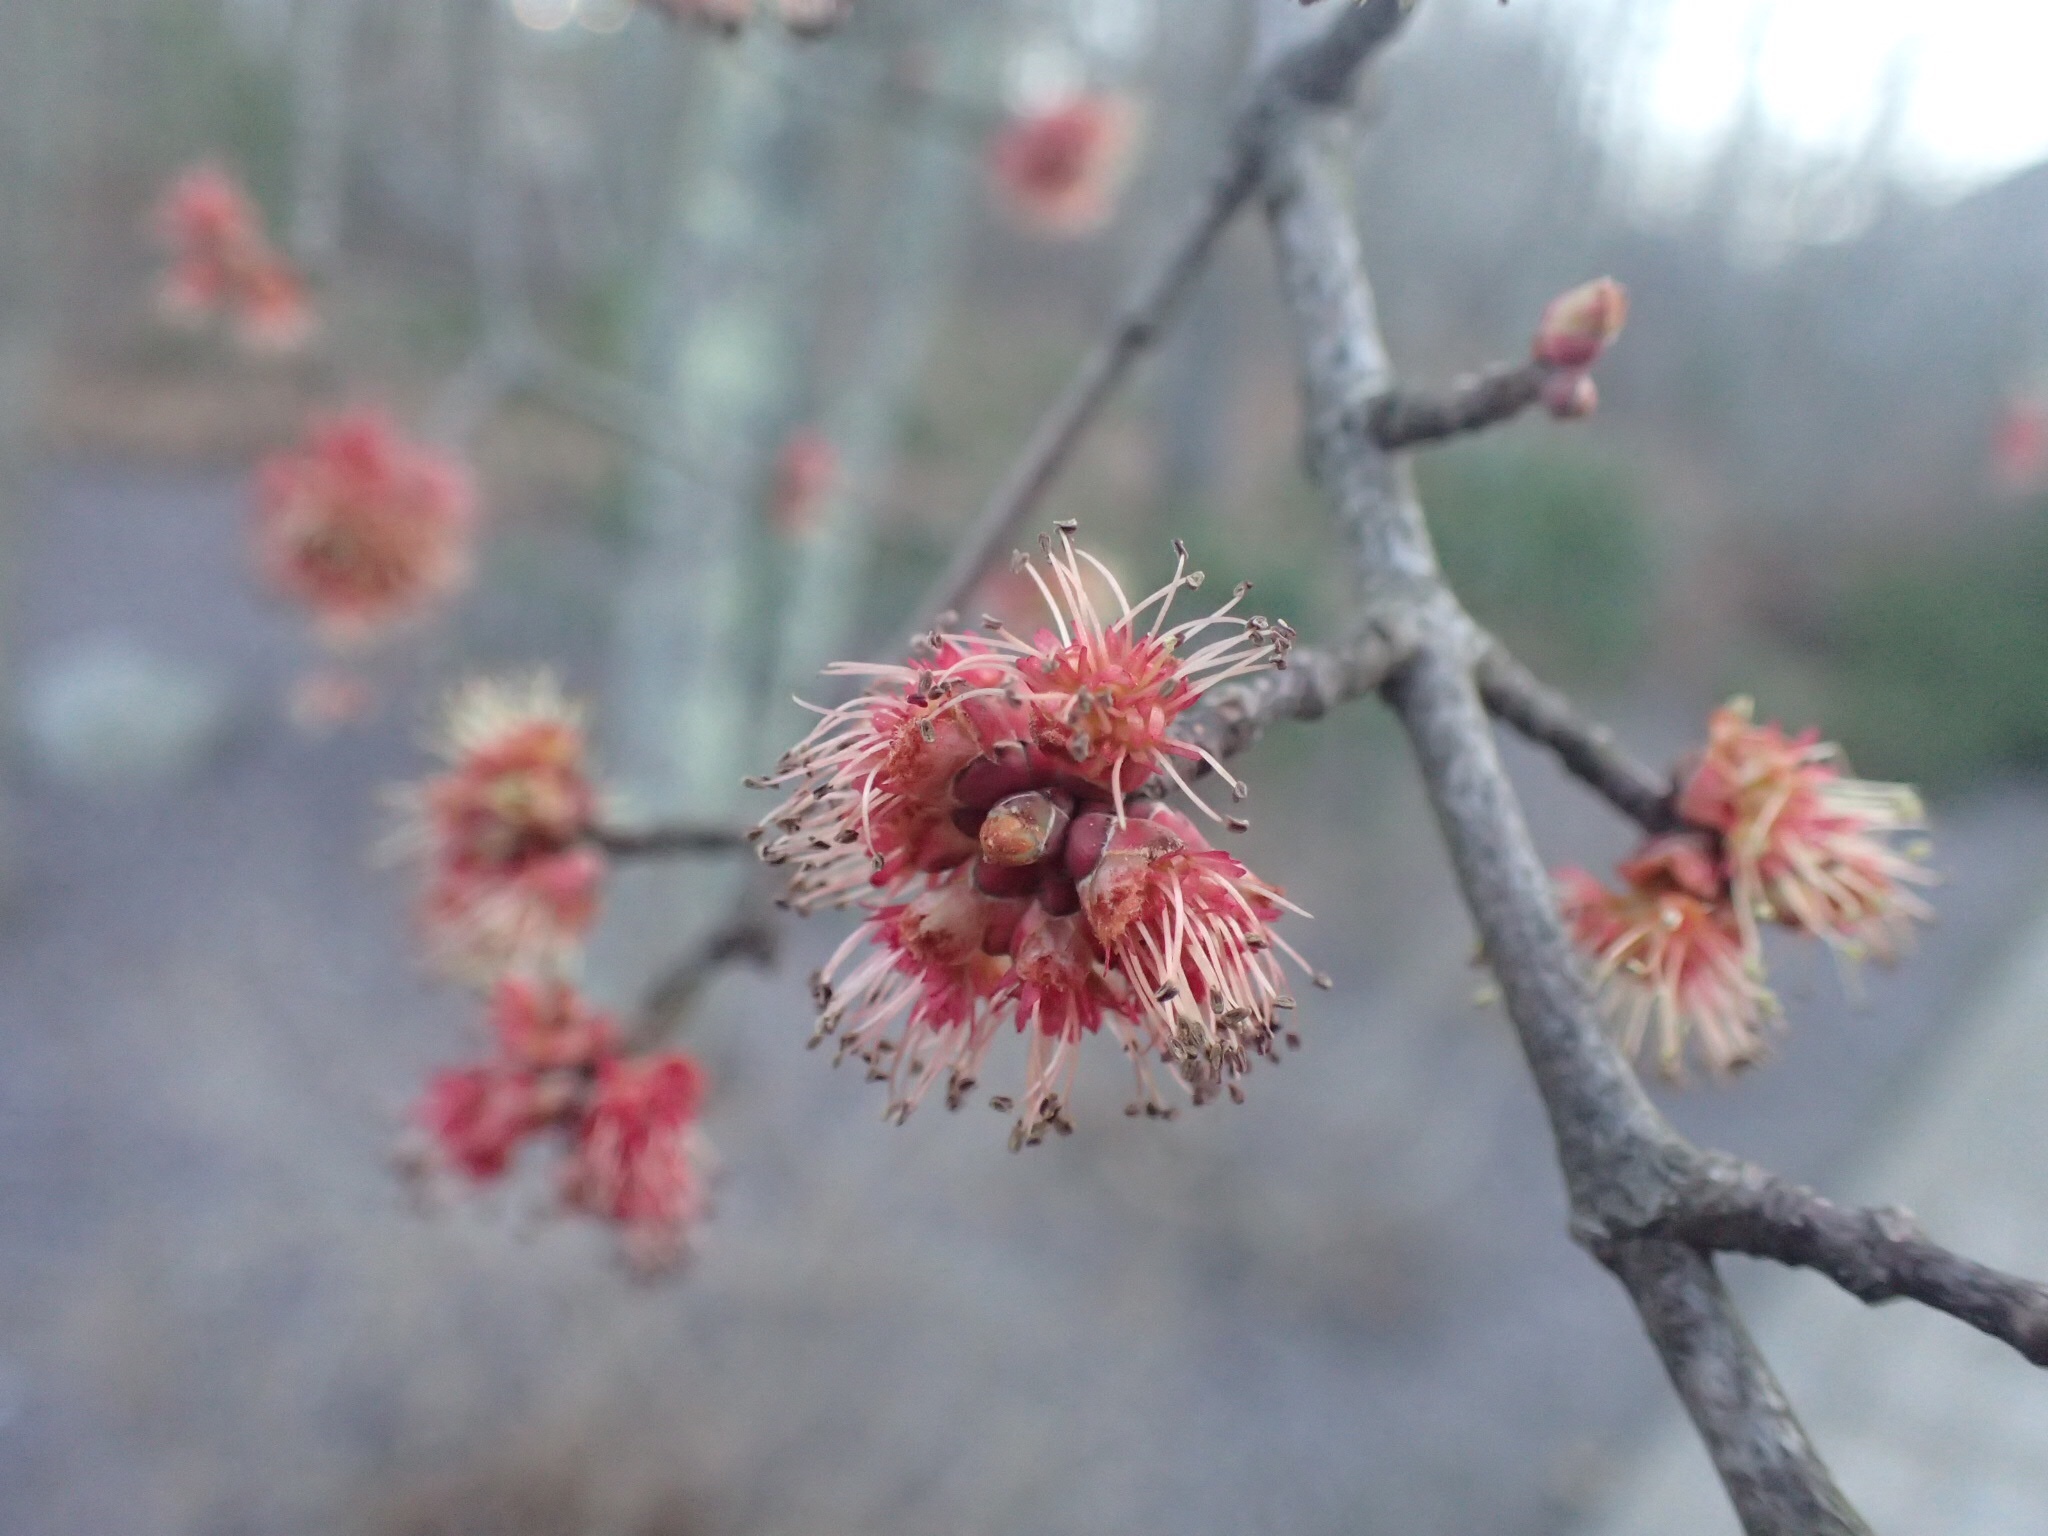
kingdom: Plantae
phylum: Tracheophyta
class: Magnoliopsida
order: Sapindales
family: Sapindaceae
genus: Acer
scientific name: Acer rubrum
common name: Red maple
